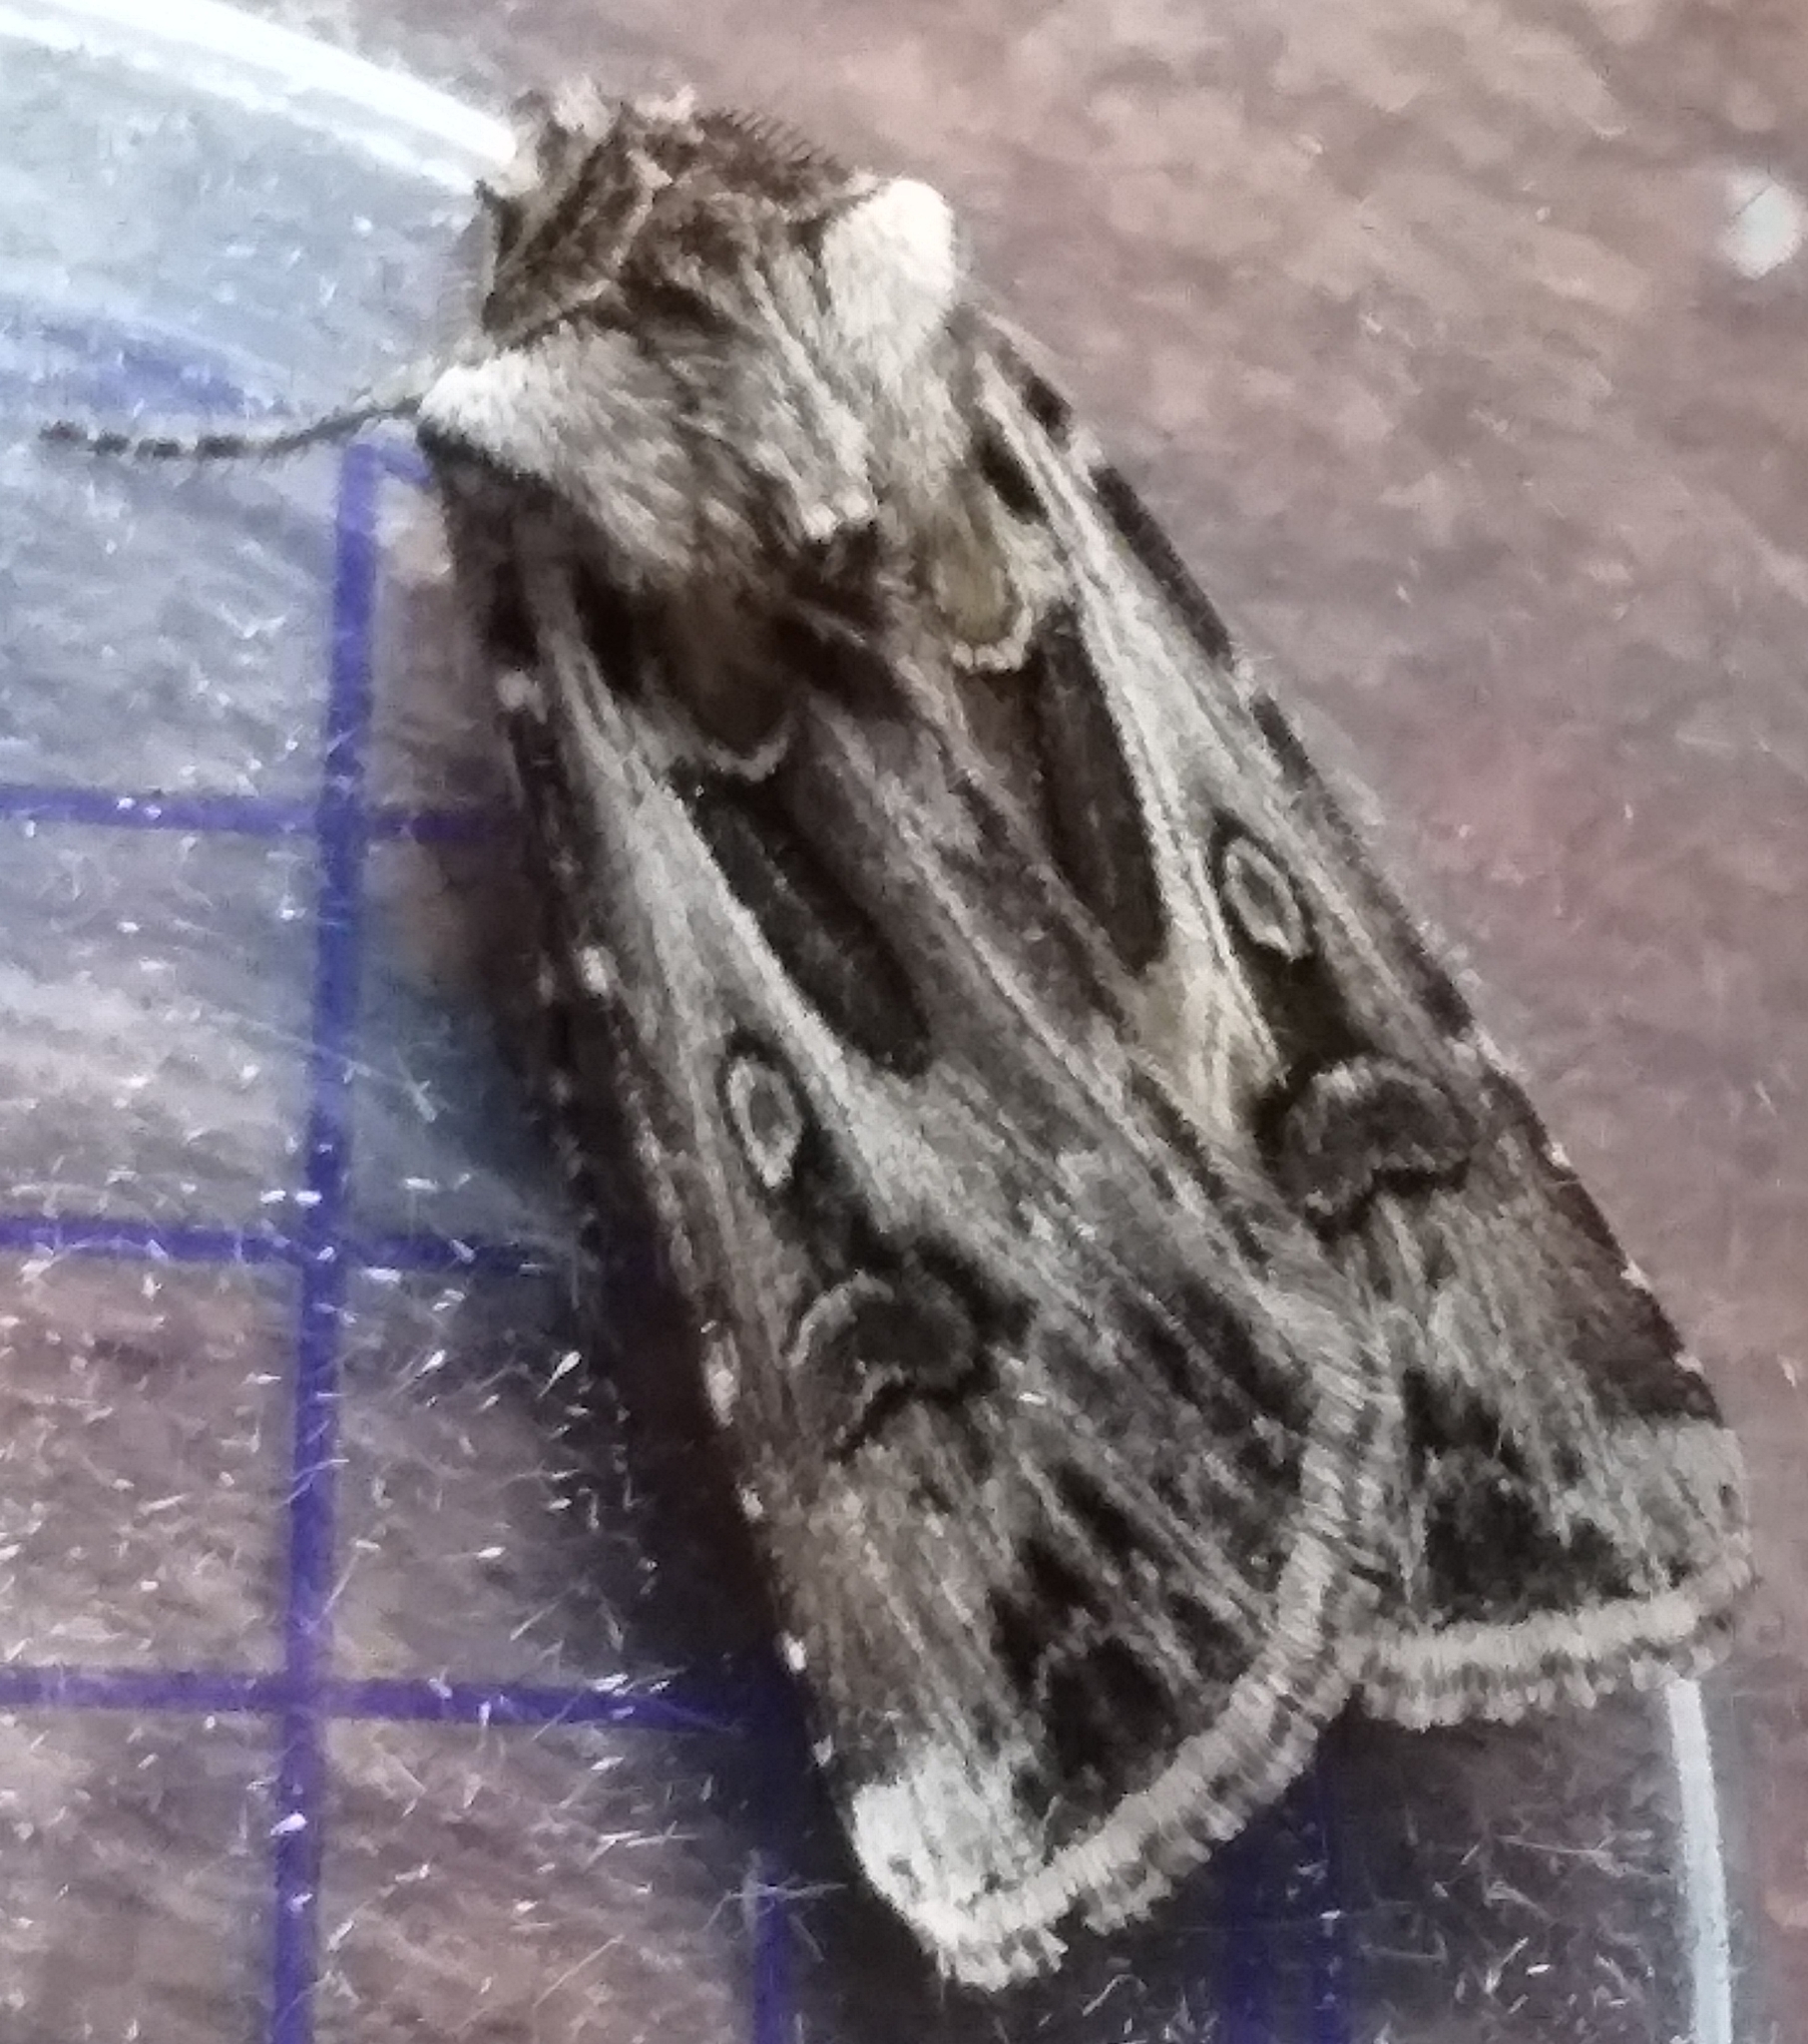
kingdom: Animalia
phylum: Arthropoda
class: Insecta
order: Lepidoptera
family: Noctuidae
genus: Agrotis
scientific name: Agrotis vestigialis
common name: Archer's dart
